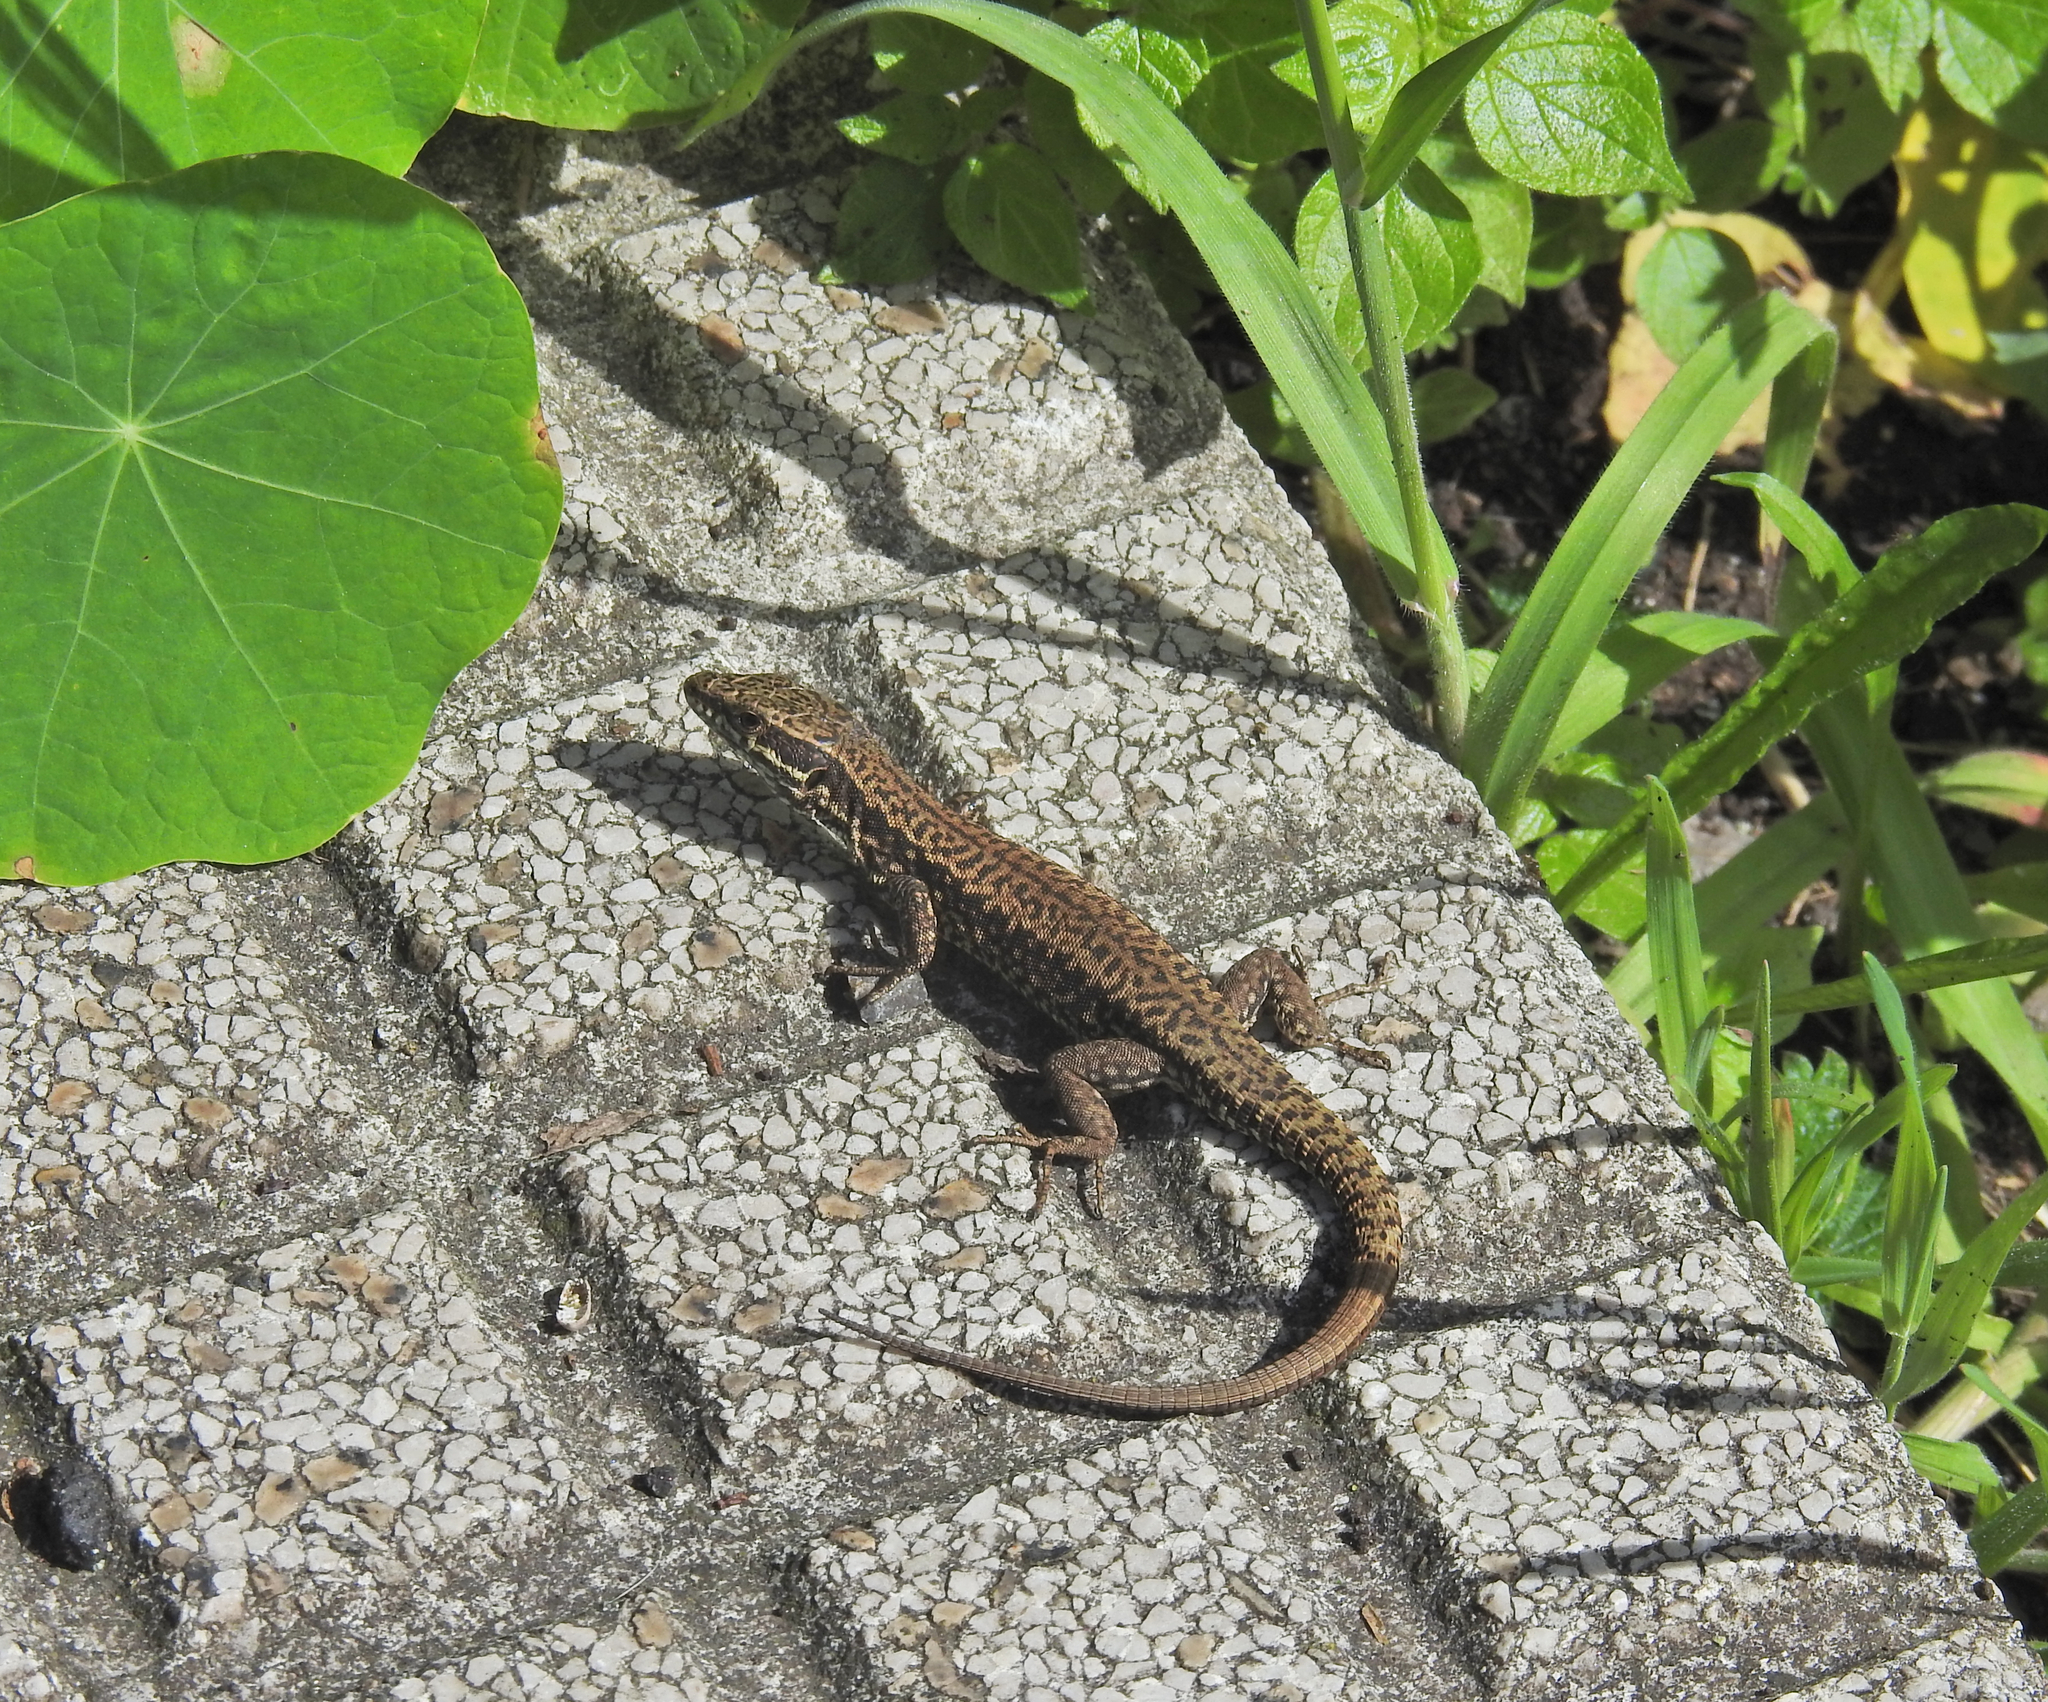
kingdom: Animalia
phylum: Chordata
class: Squamata
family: Lacertidae
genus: Podarcis
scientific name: Podarcis muralis
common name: Common wall lizard
